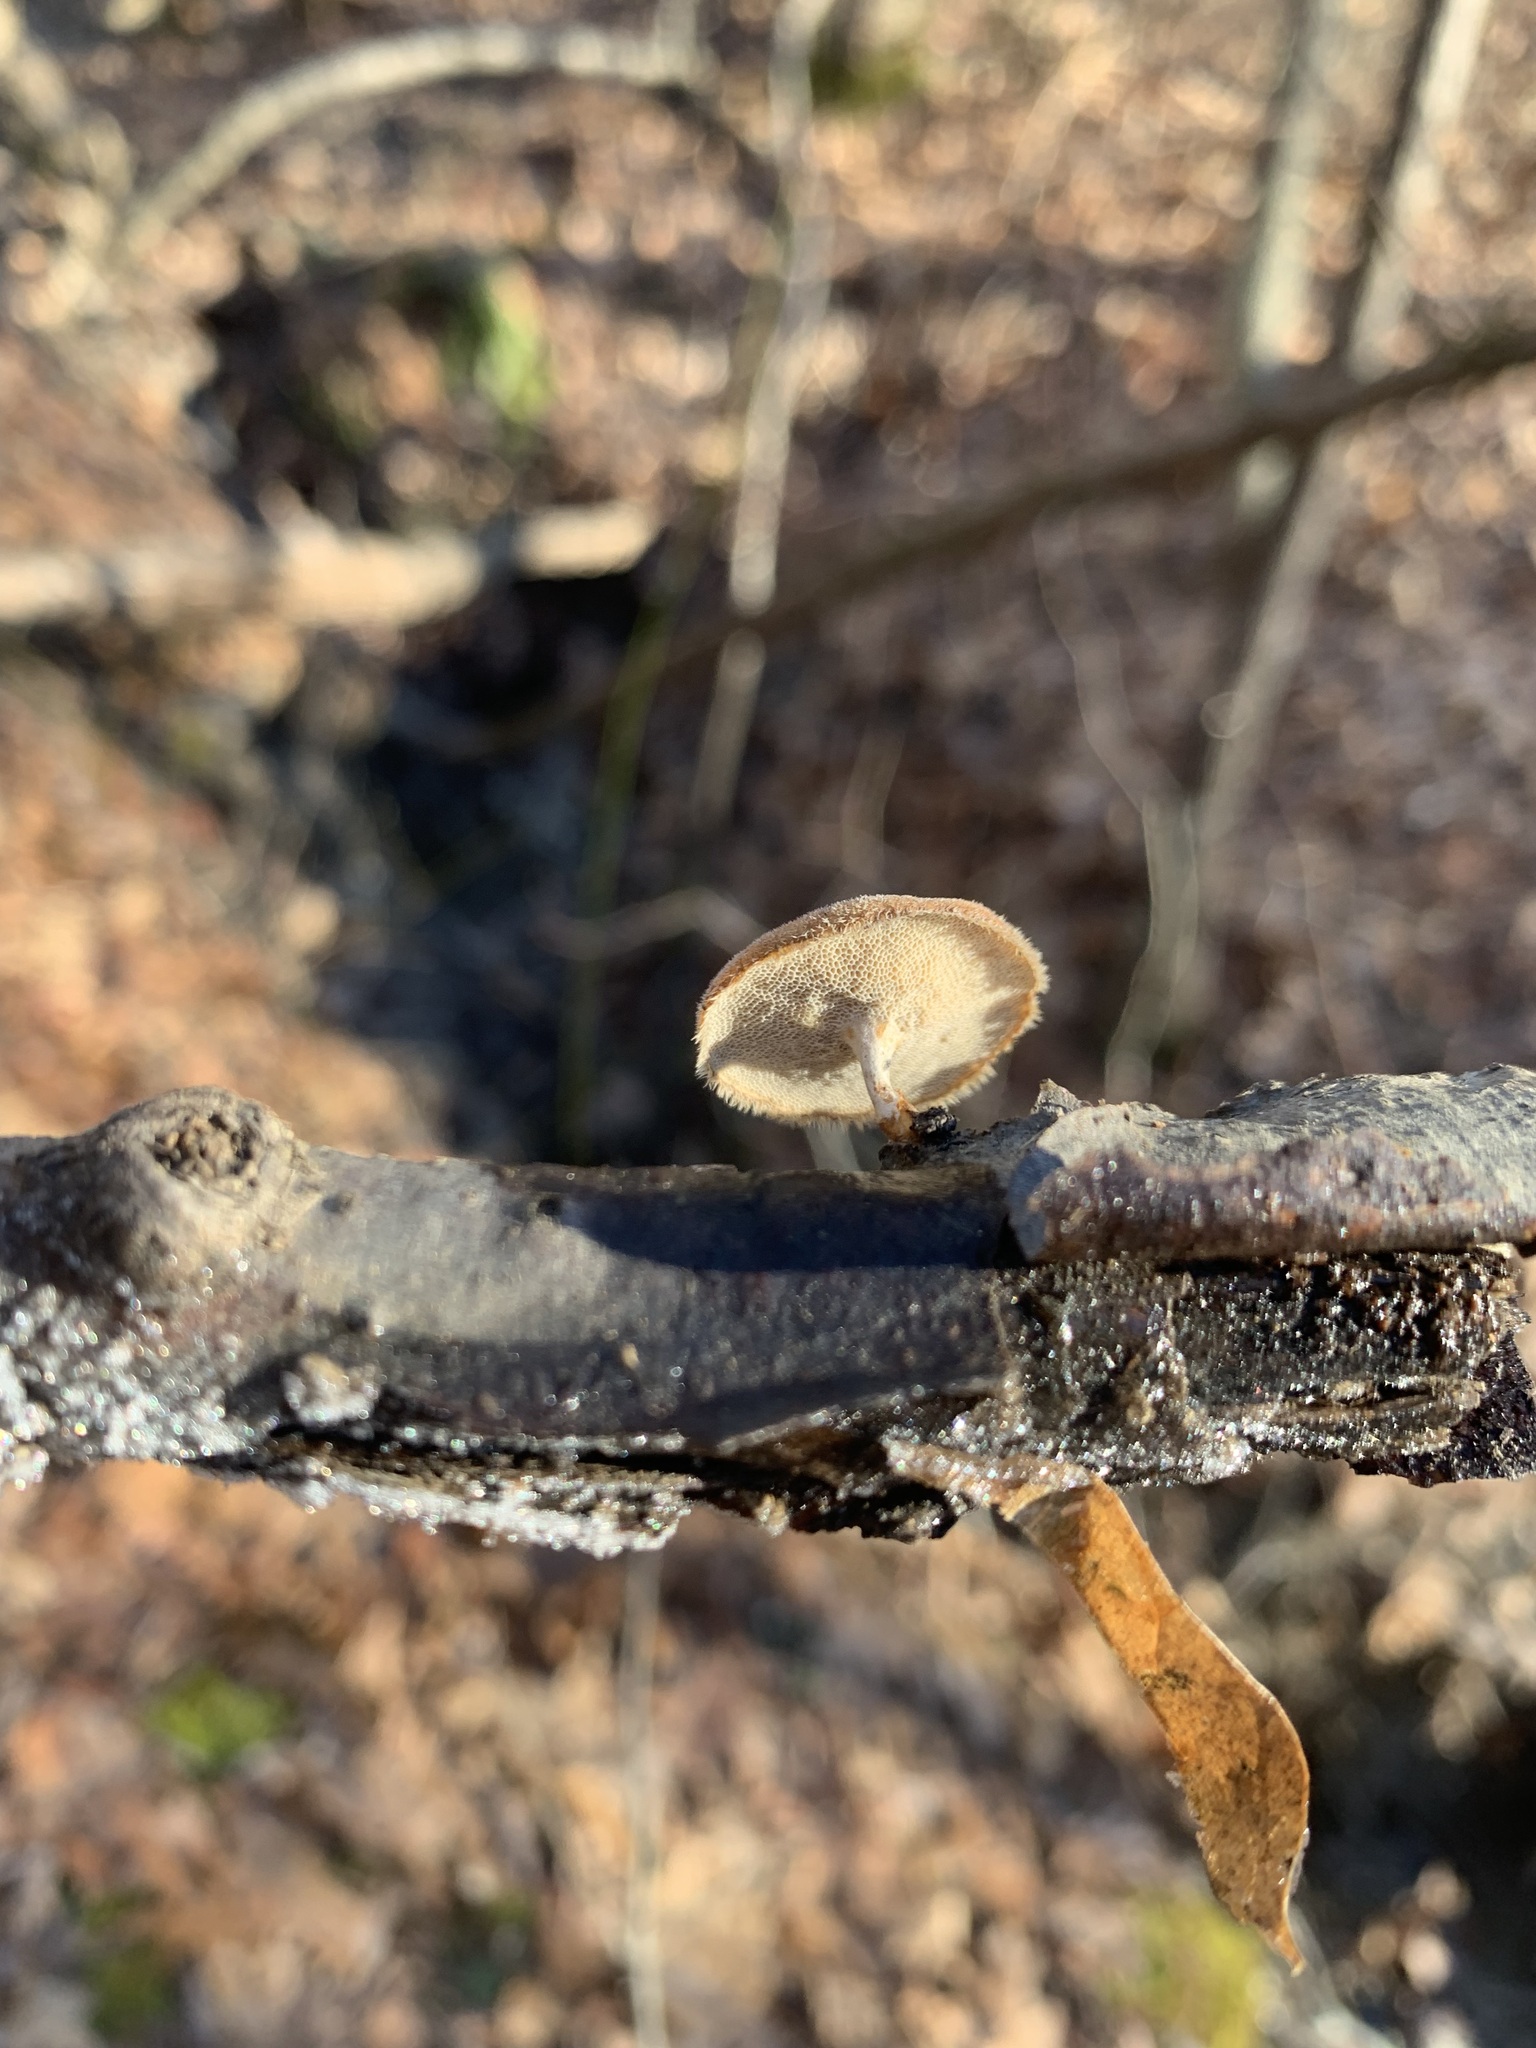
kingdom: Fungi
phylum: Basidiomycota
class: Agaricomycetes
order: Polyporales
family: Polyporaceae
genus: Lentinus
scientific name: Lentinus arcularius
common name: Spring polypore
